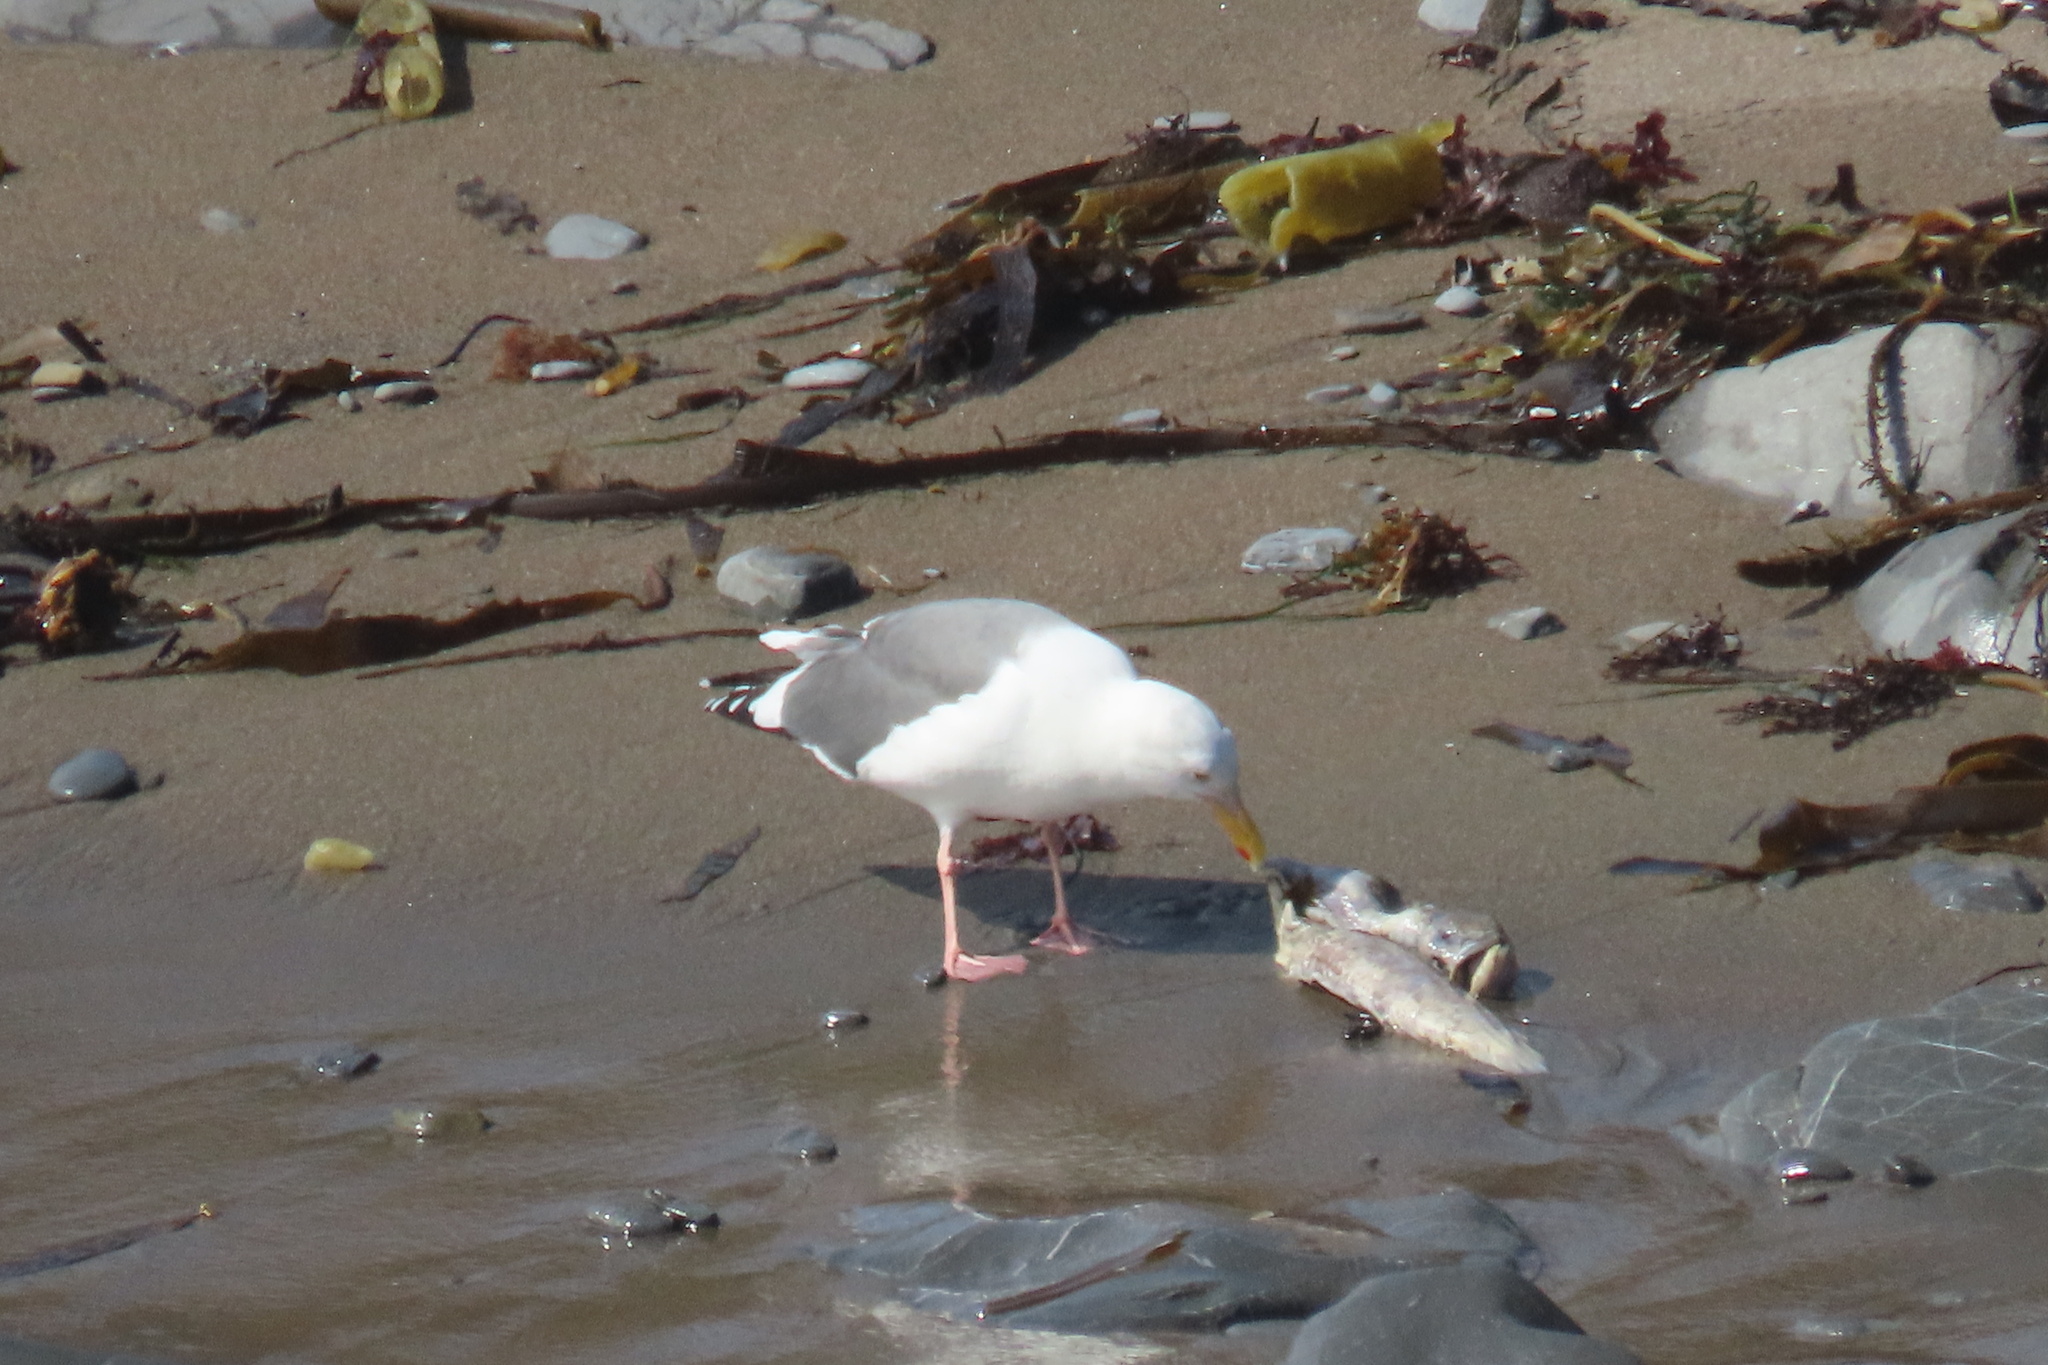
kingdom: Animalia
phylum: Chordata
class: Aves
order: Charadriiformes
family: Laridae
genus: Larus
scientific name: Larus occidentalis
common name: Western gull
